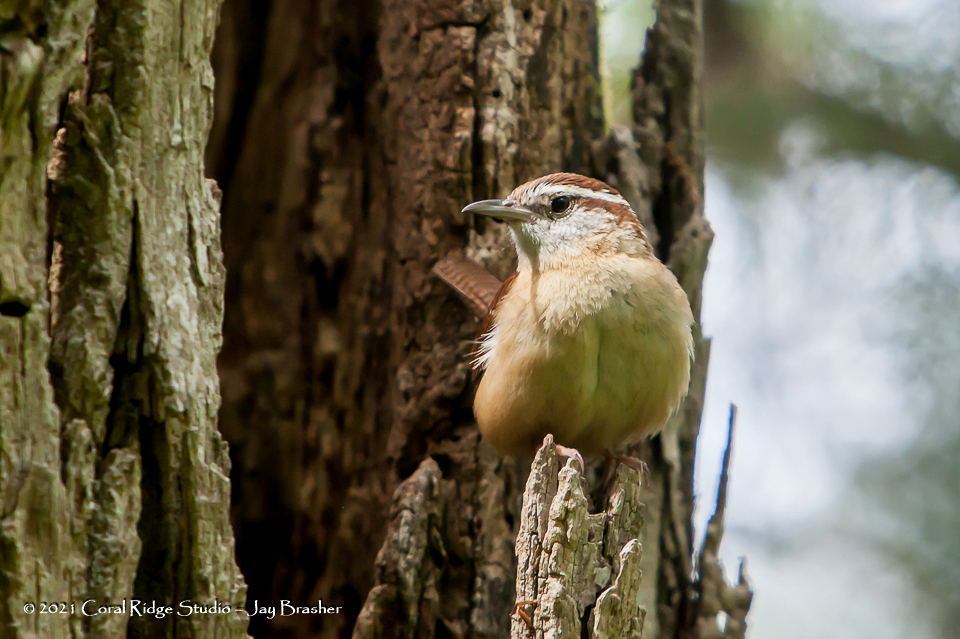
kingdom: Animalia
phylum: Chordata
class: Aves
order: Passeriformes
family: Troglodytidae
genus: Thryothorus
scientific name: Thryothorus ludovicianus
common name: Carolina wren
